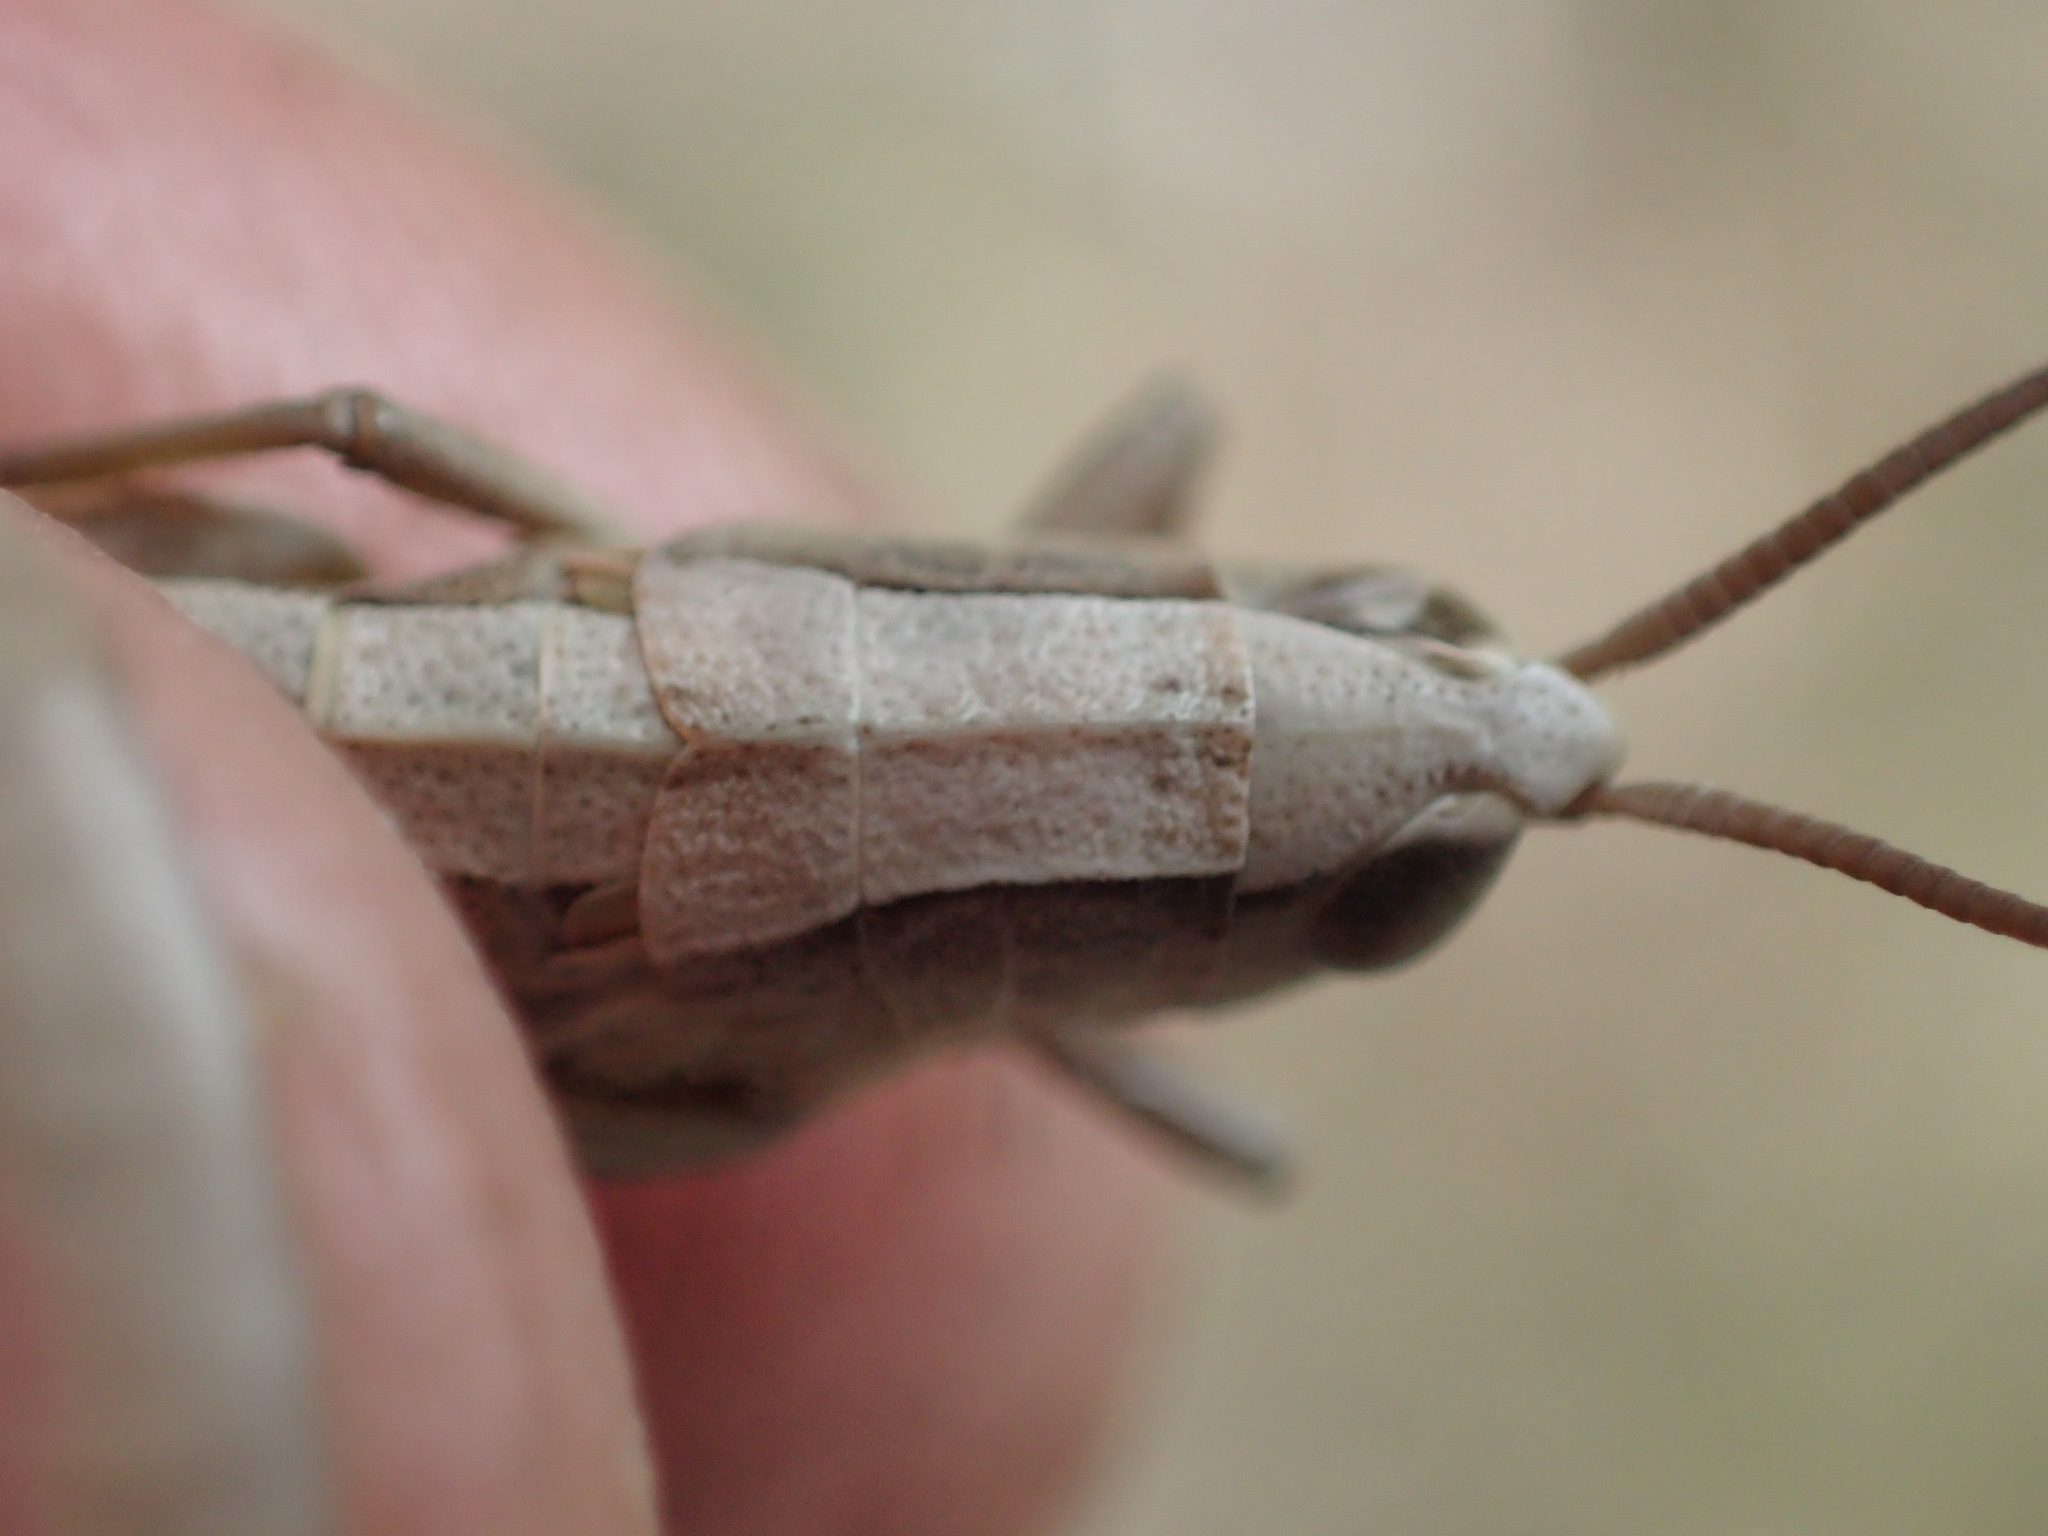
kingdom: Animalia
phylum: Arthropoda
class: Insecta
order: Orthoptera
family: Acrididae
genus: Tasmaniacris
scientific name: Tasmaniacris tasmaniensis
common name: Tasmanian grasshopper
